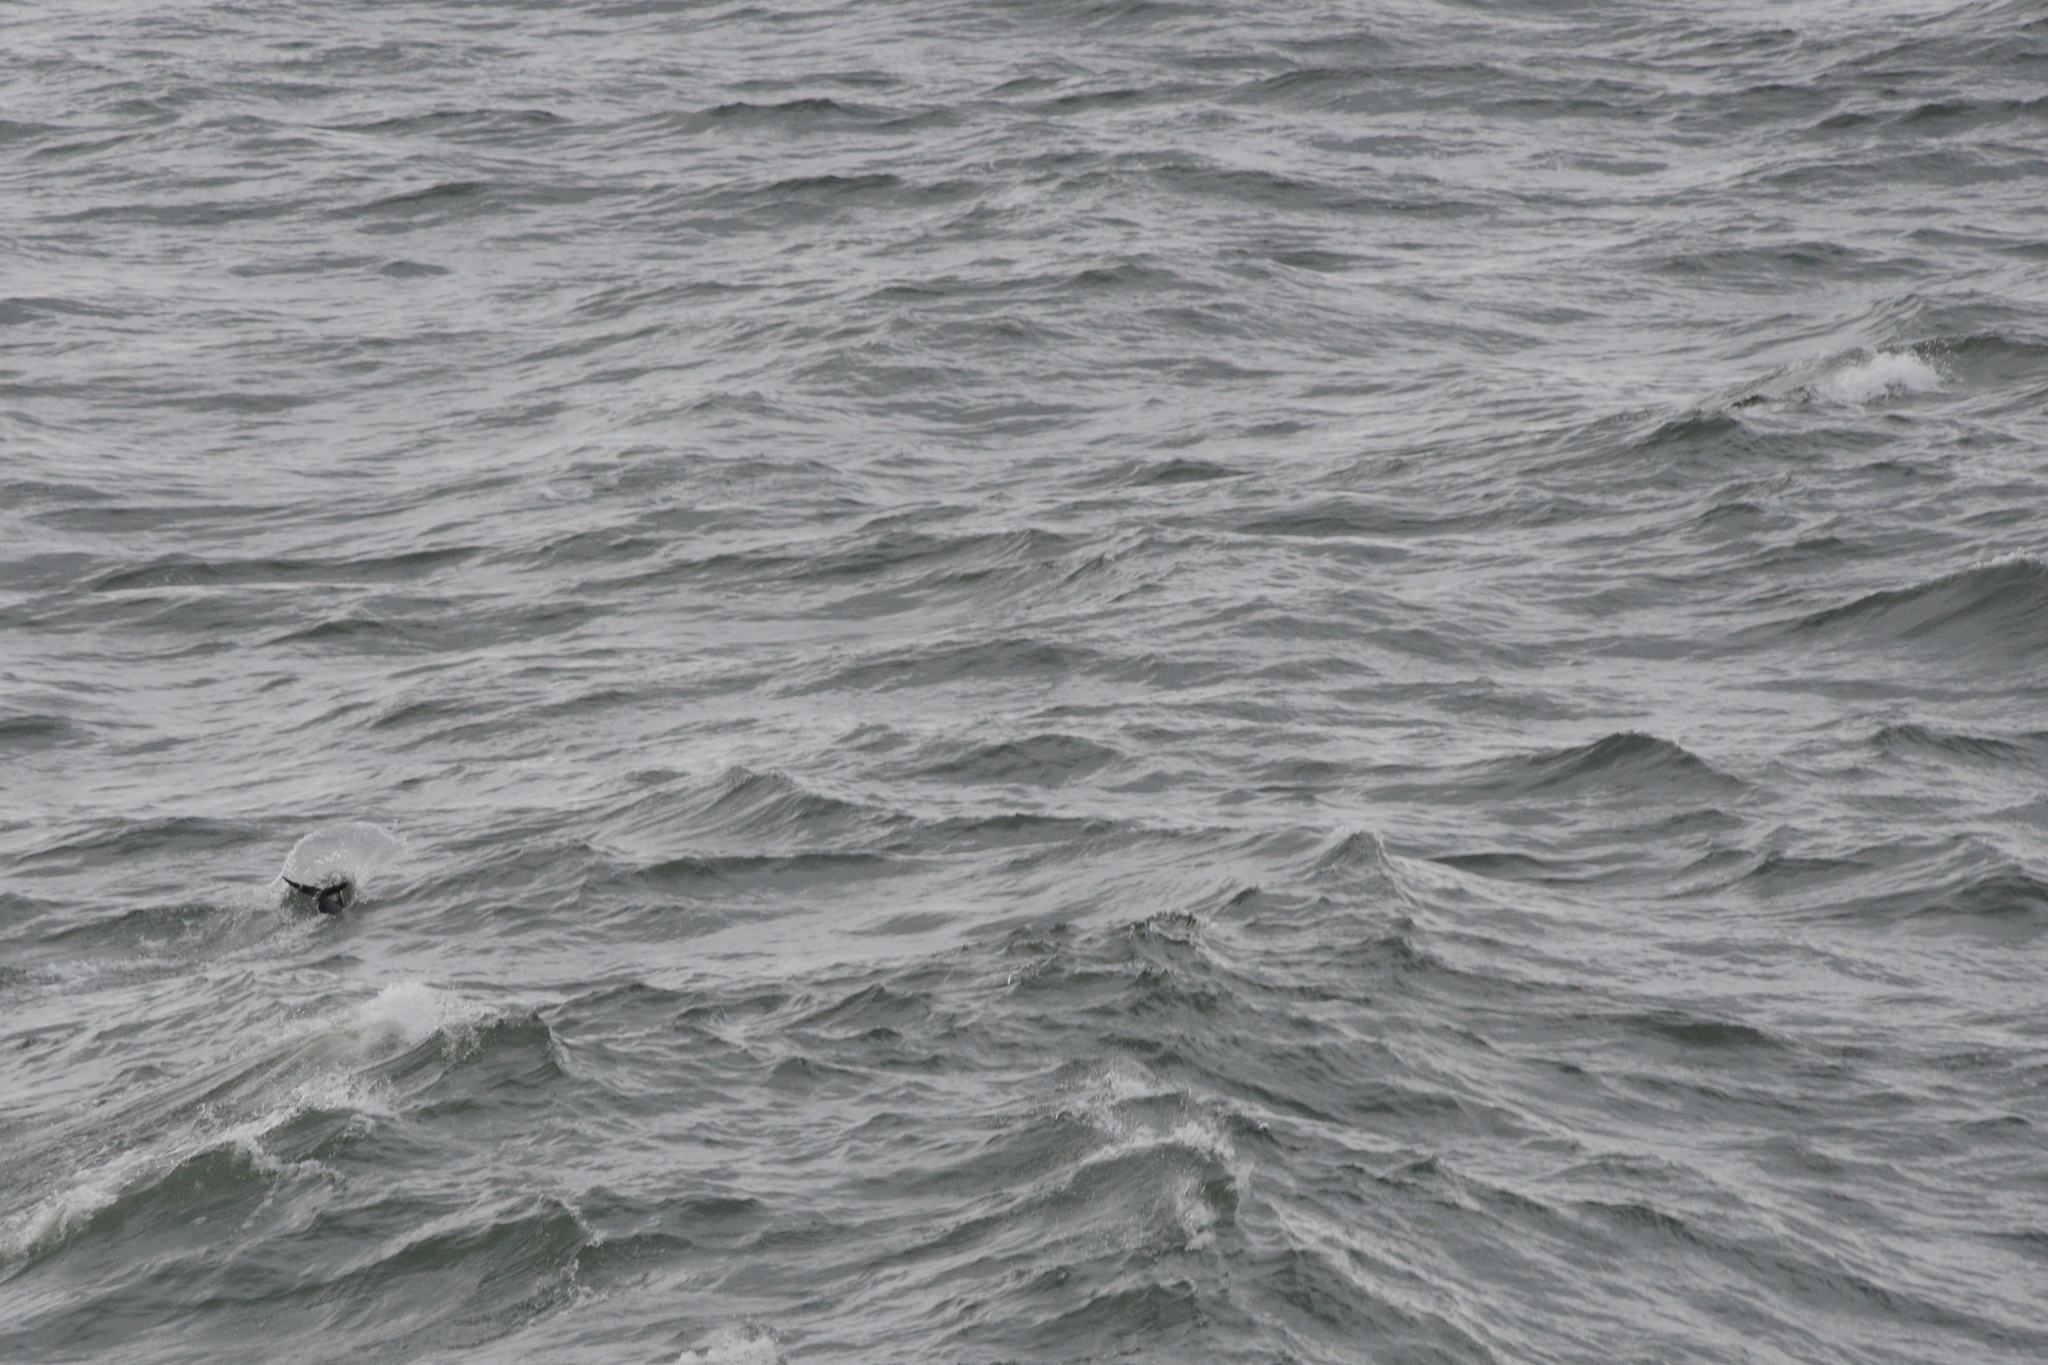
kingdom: Animalia
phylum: Chordata
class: Mammalia
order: Cetacea
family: Delphinidae
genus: Cephalorhynchus
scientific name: Cephalorhynchus hectori
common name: Hector's dolphin
